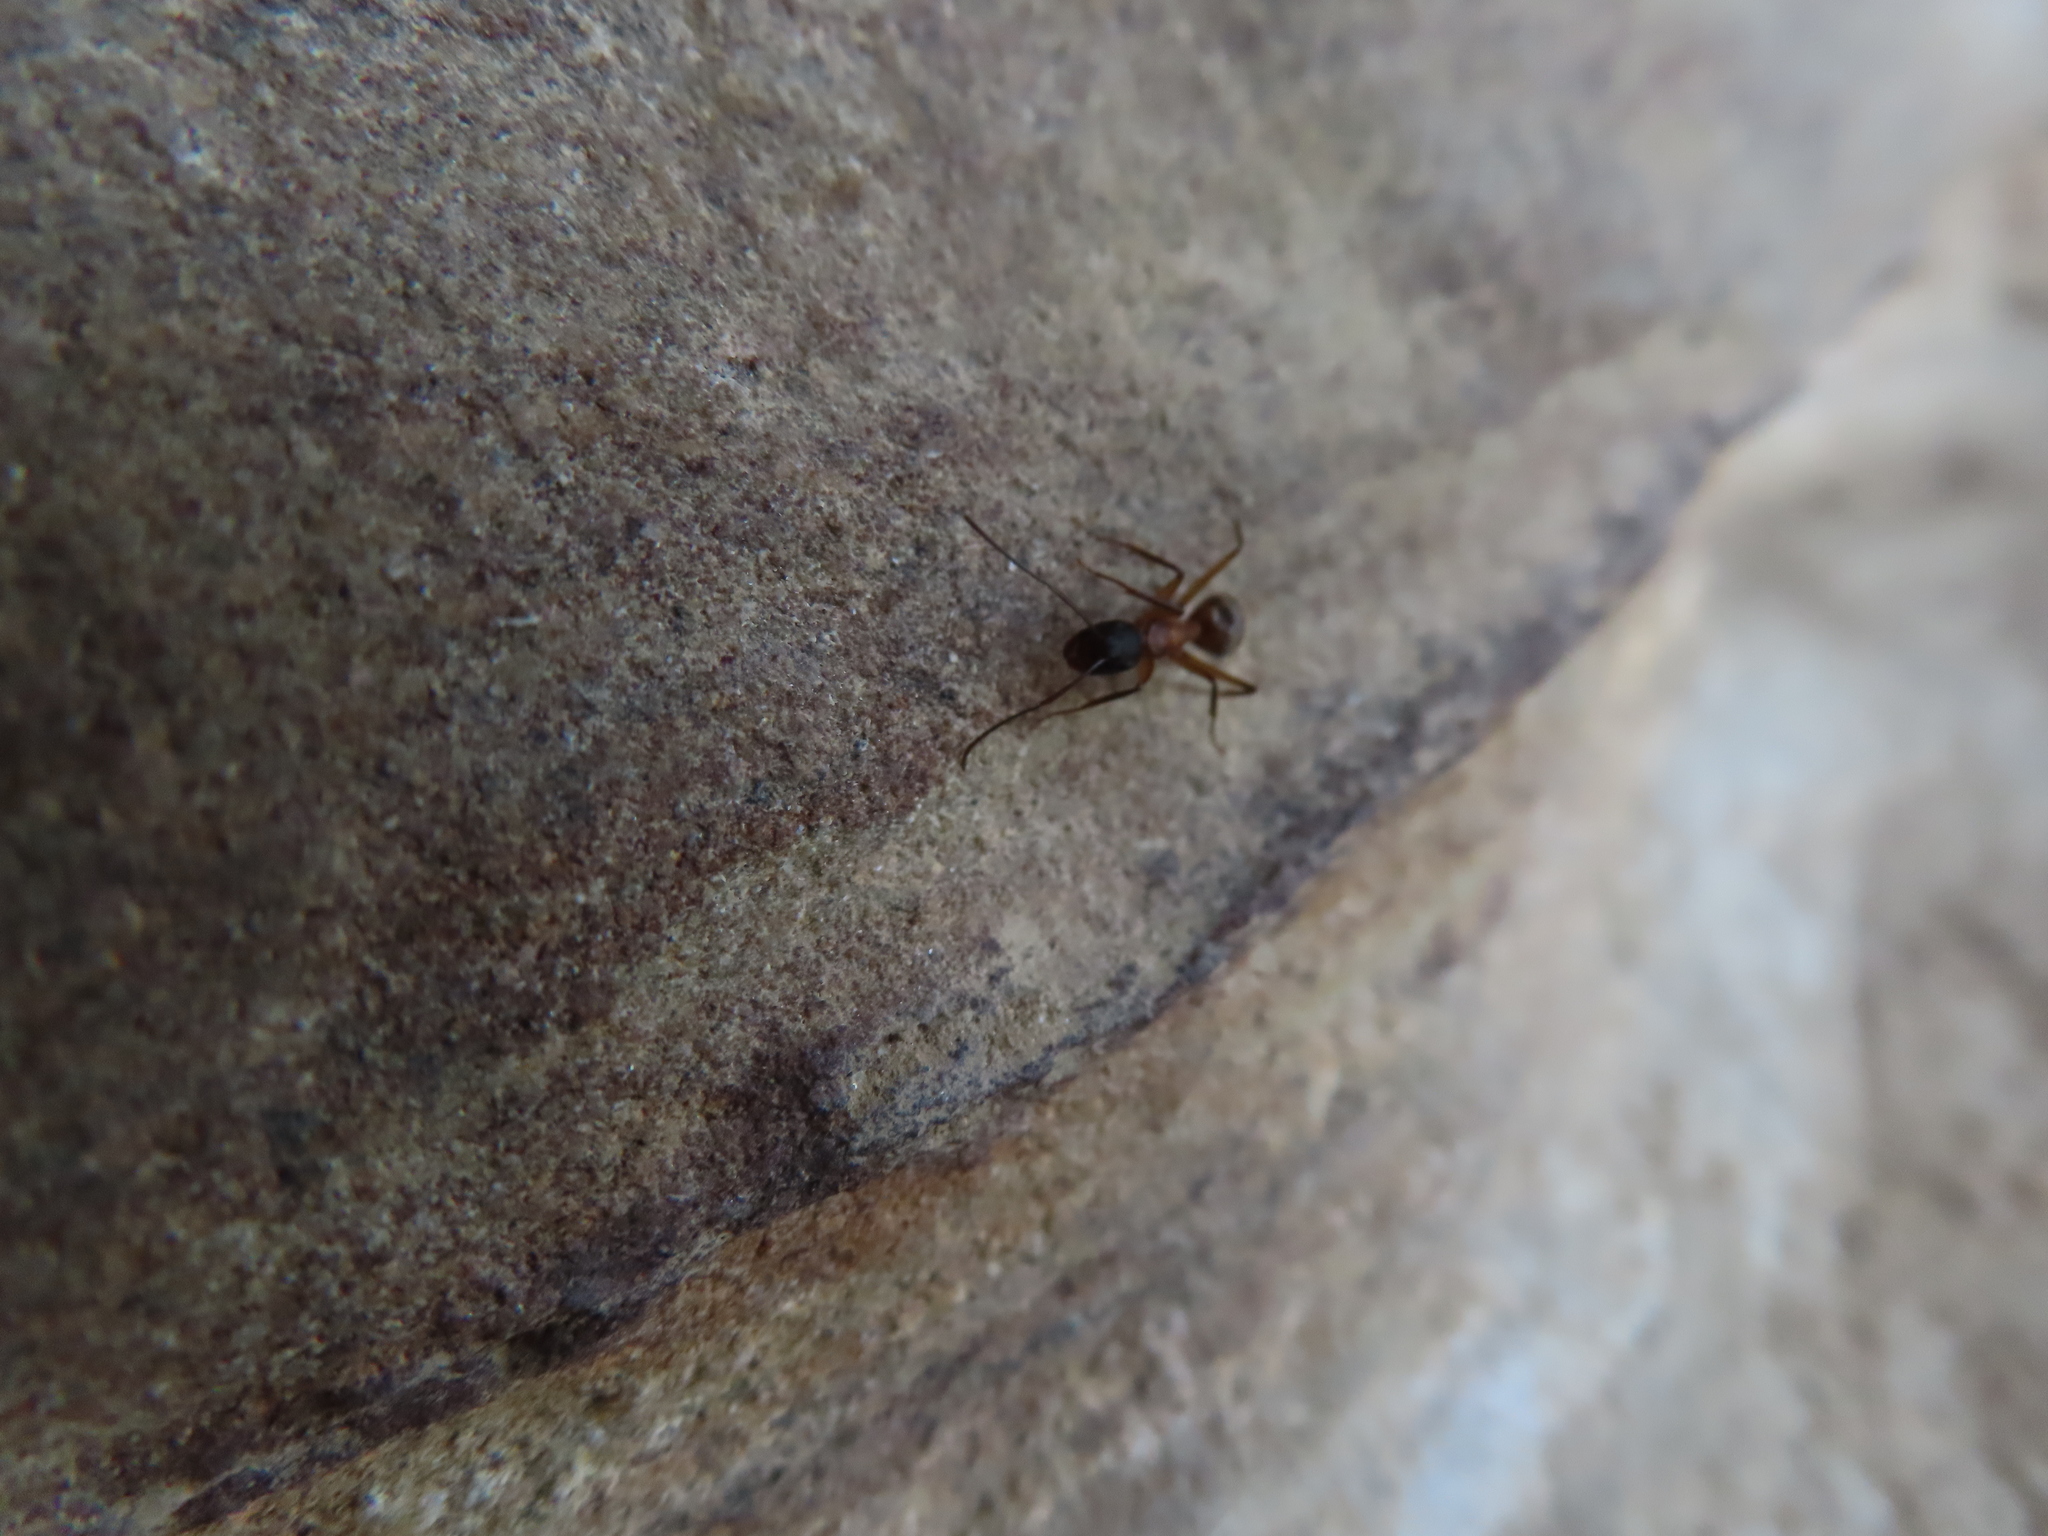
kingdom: Animalia
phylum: Arthropoda
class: Insecta
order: Hymenoptera
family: Formicidae
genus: Camponotus
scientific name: Camponotus chromaiodes
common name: Red carpenter ant
